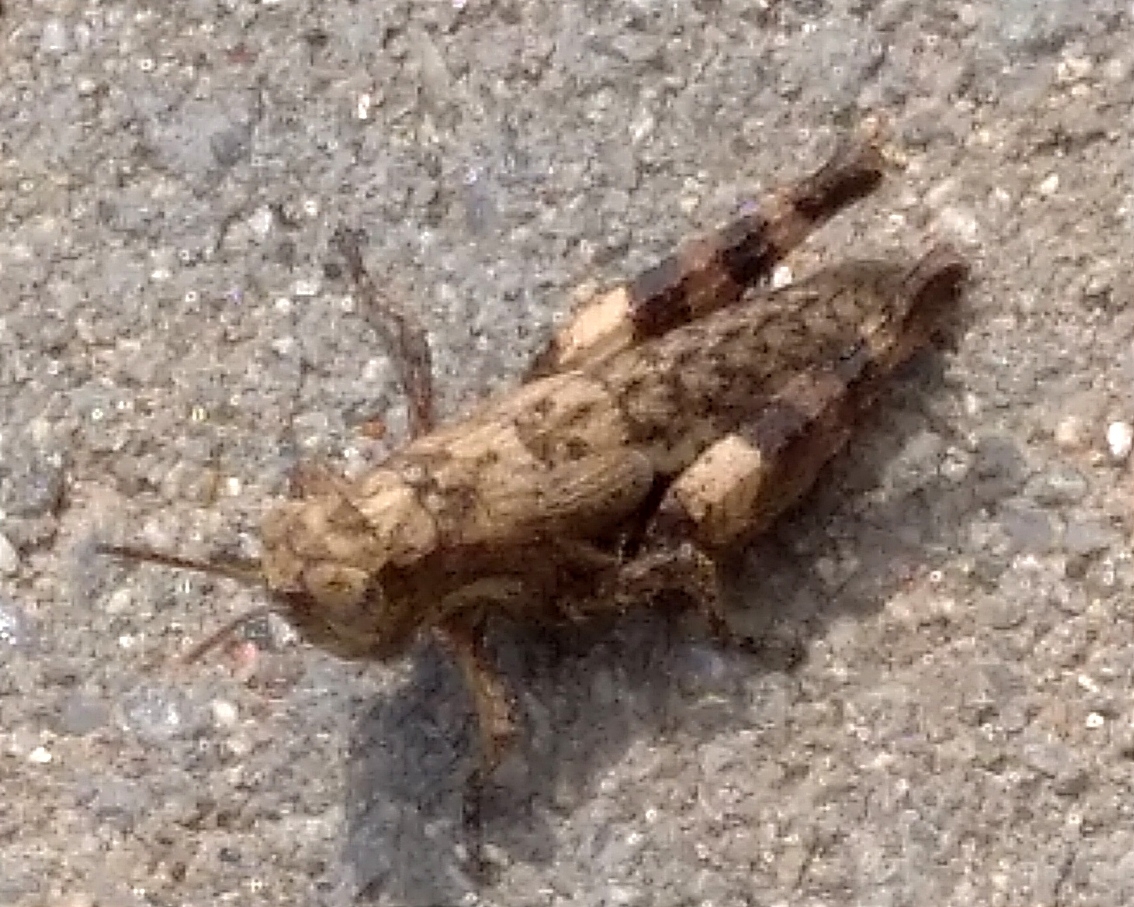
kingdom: Animalia
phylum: Arthropoda
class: Insecta
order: Orthoptera
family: Acrididae
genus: Pezotettix
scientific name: Pezotettix giornae
